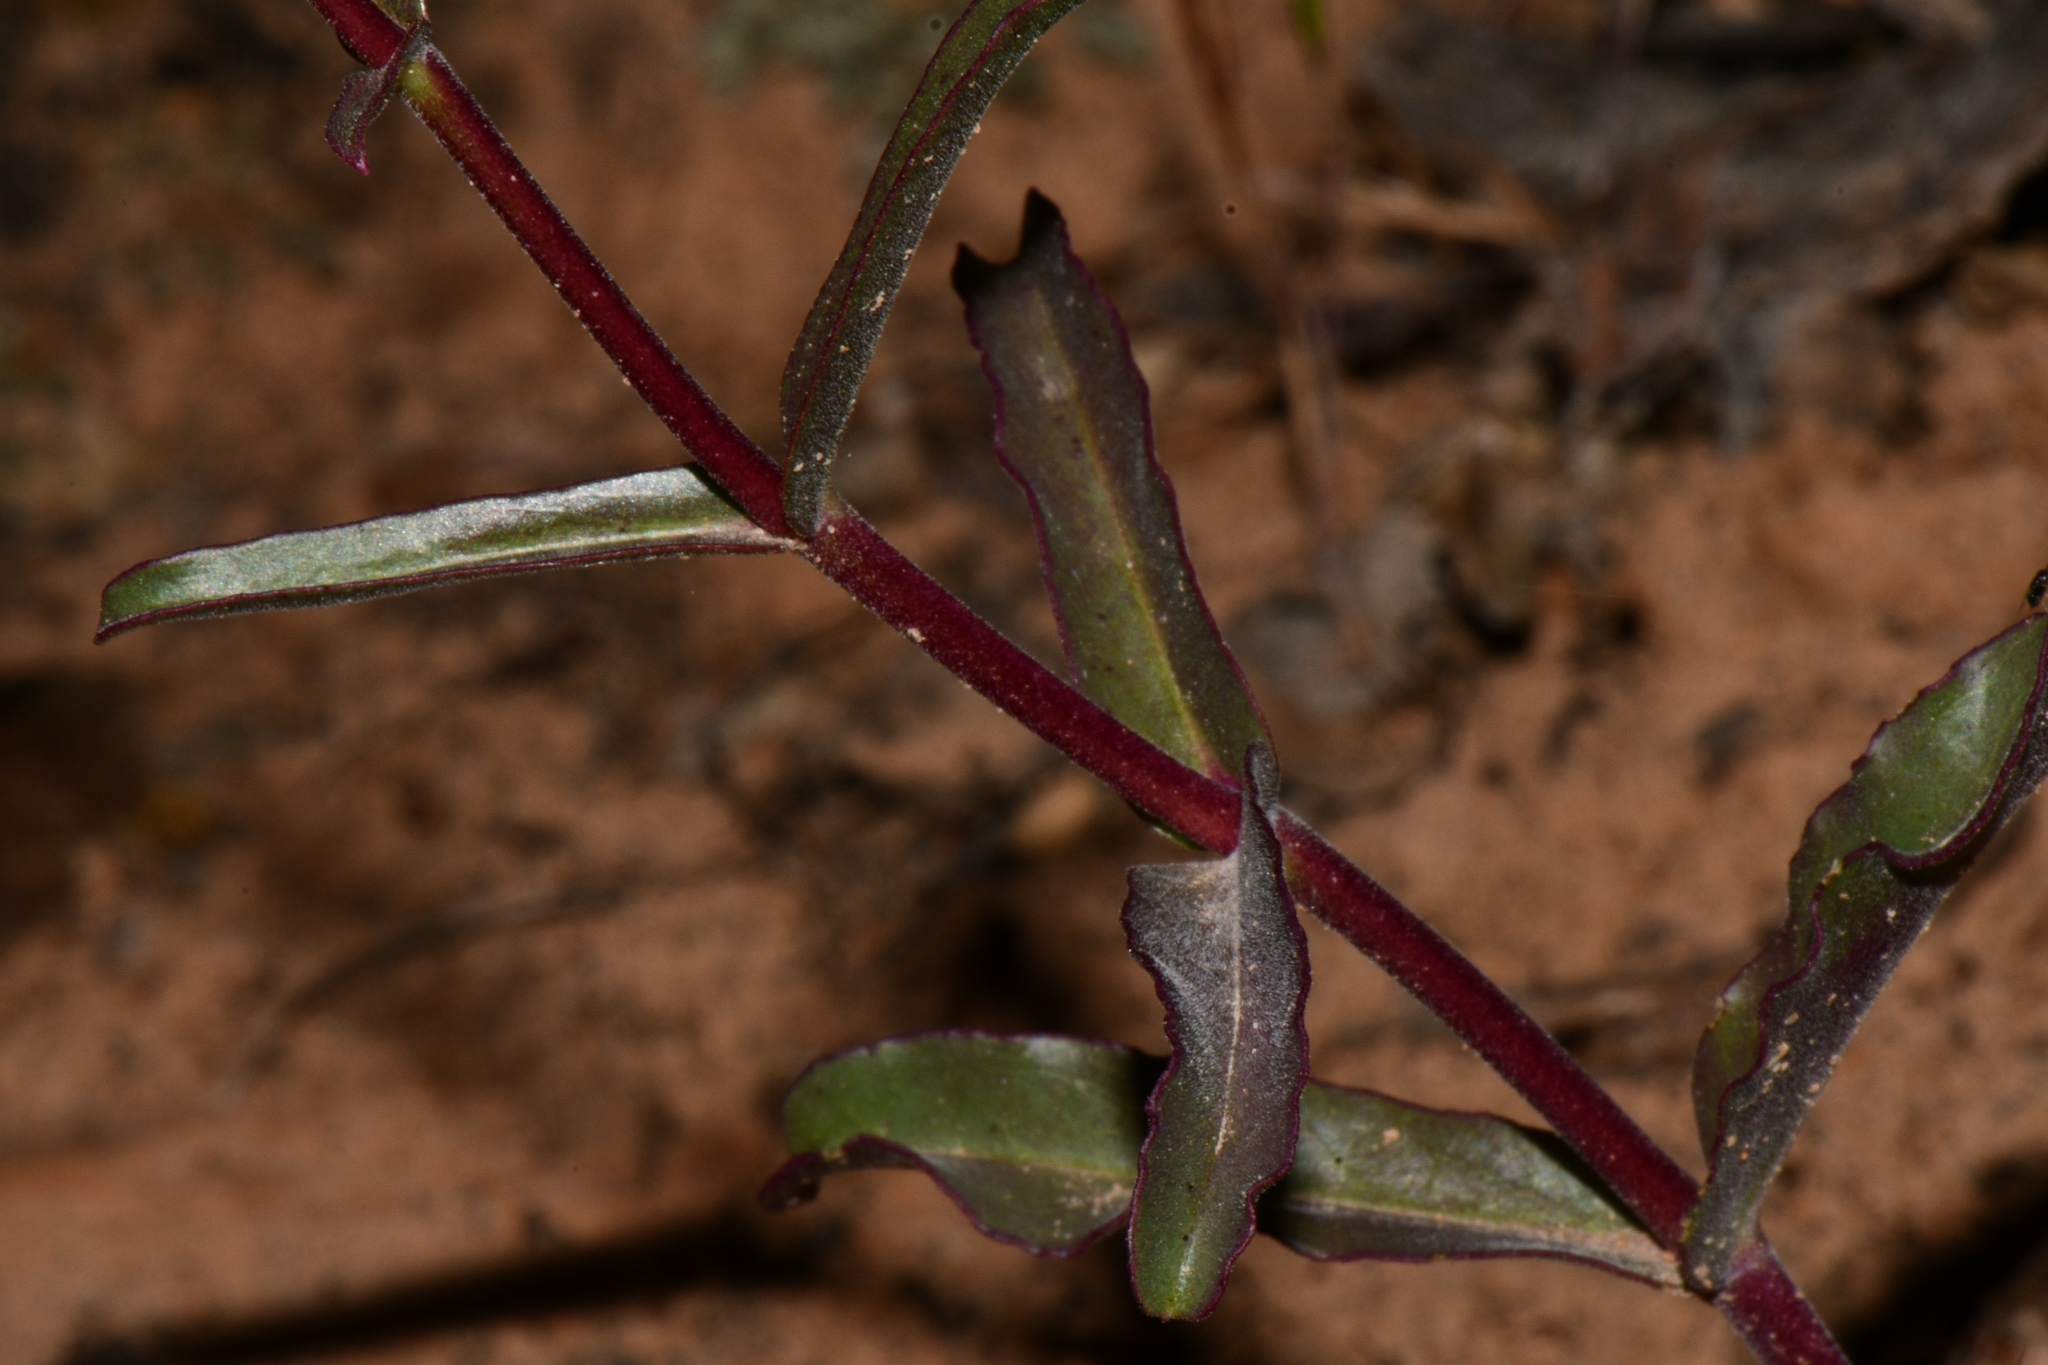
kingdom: Plantae
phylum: Tracheophyta
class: Magnoliopsida
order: Lamiales
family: Plantaginaceae
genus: Penstemon
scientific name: Penstemon jonesii
